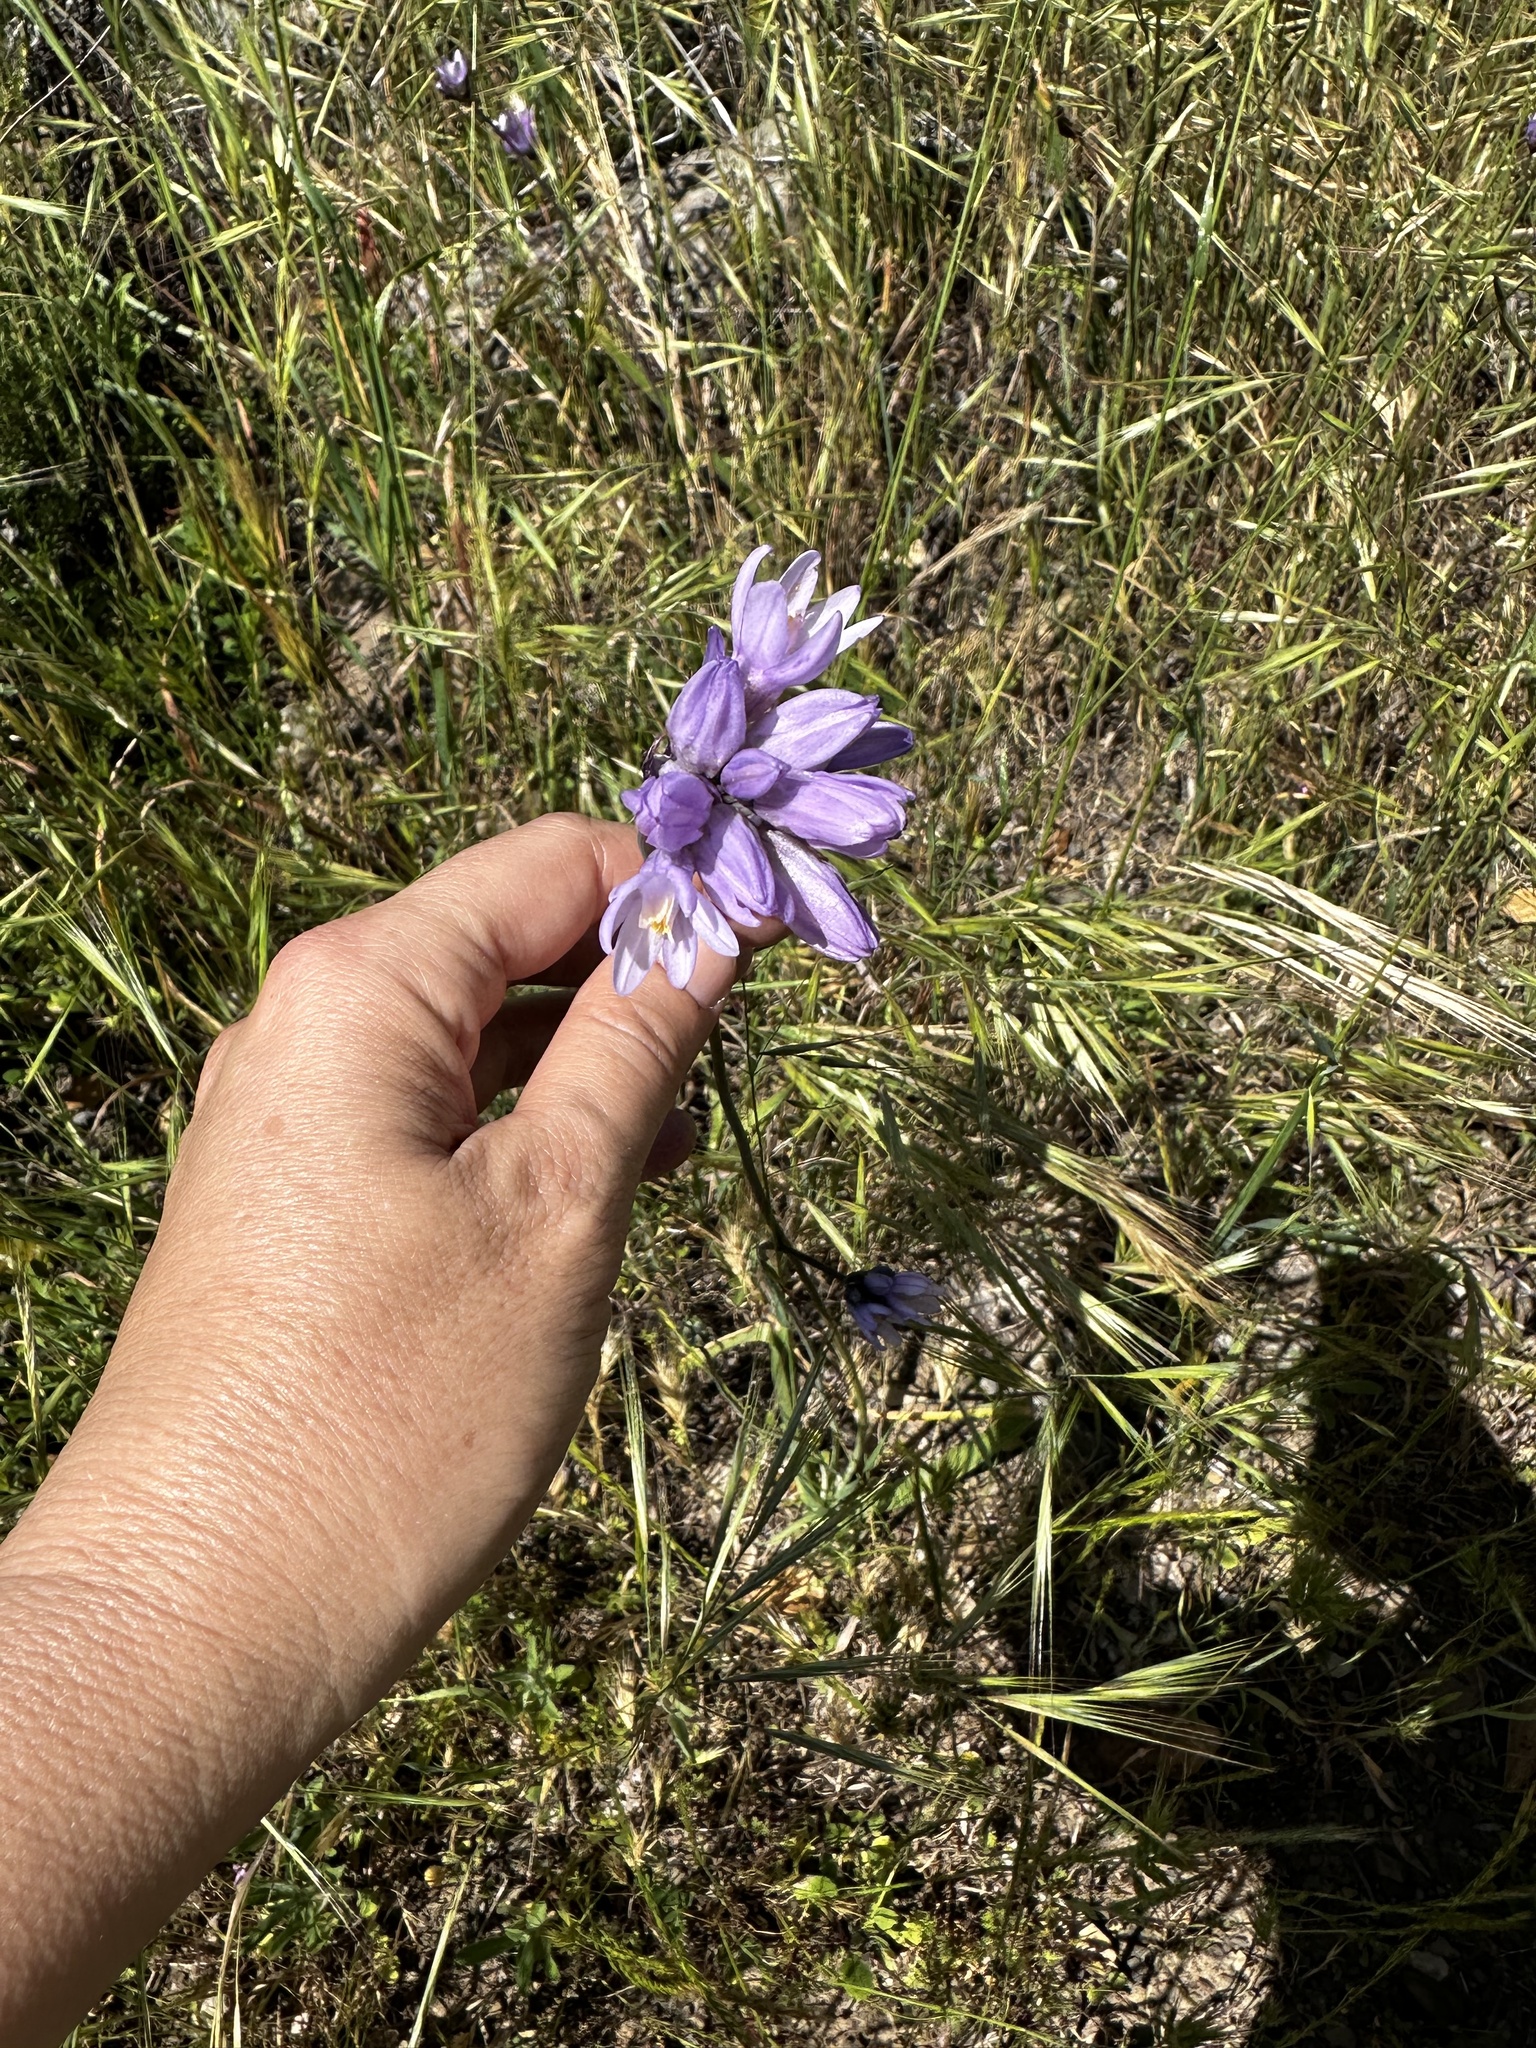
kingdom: Plantae
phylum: Tracheophyta
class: Liliopsida
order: Asparagales
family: Asparagaceae
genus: Dipterostemon
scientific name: Dipterostemon capitatus
